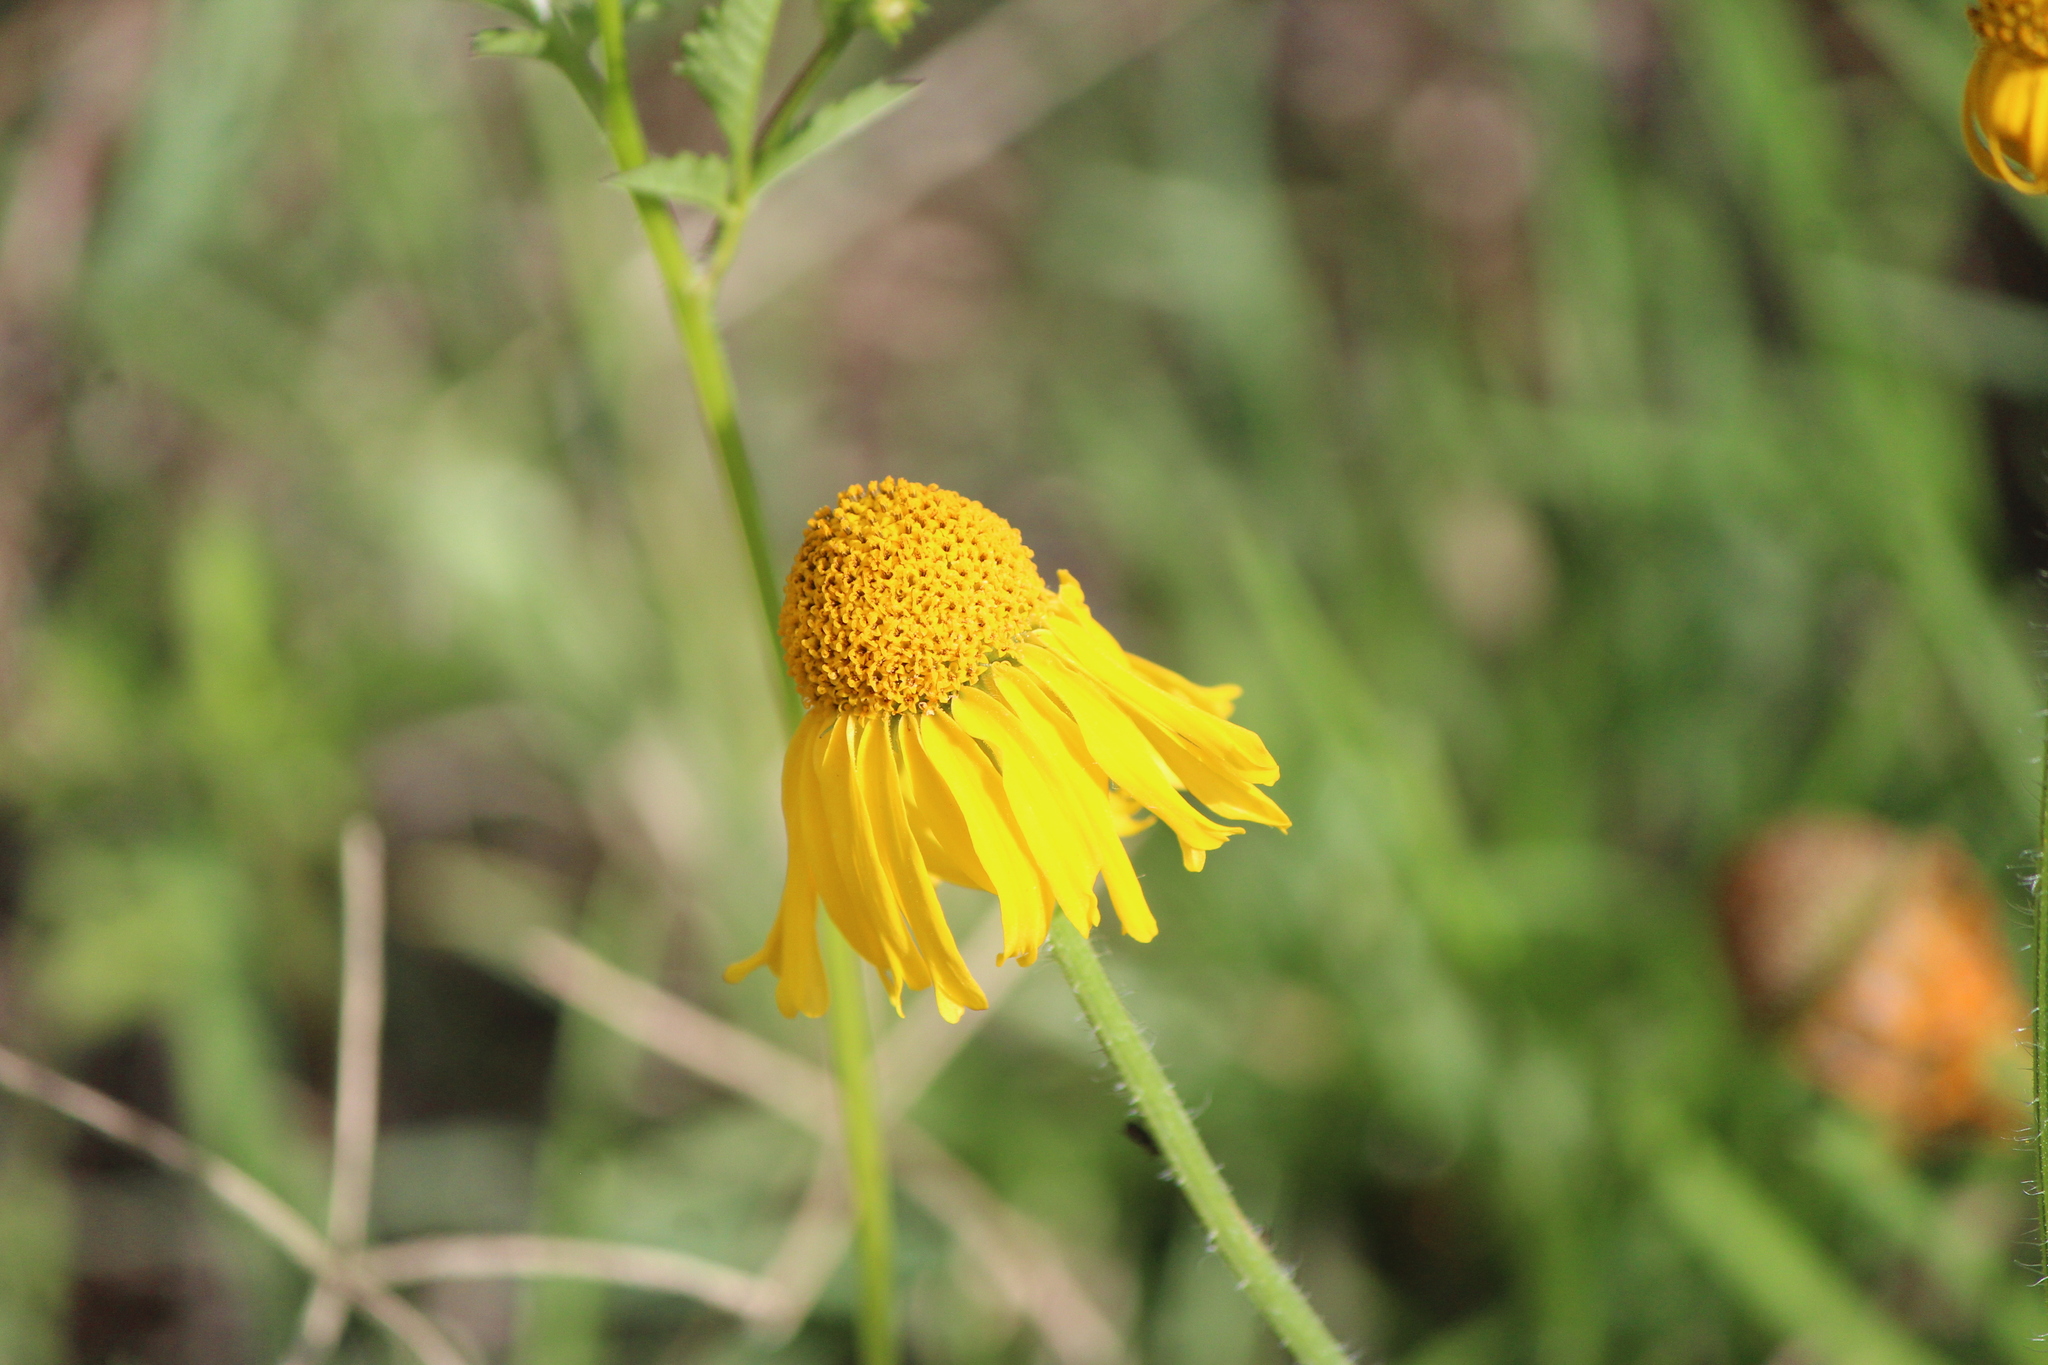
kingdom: Plantae
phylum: Tracheophyta
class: Magnoliopsida
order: Asterales
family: Asteraceae
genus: Hybridella
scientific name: Hybridella globosa
